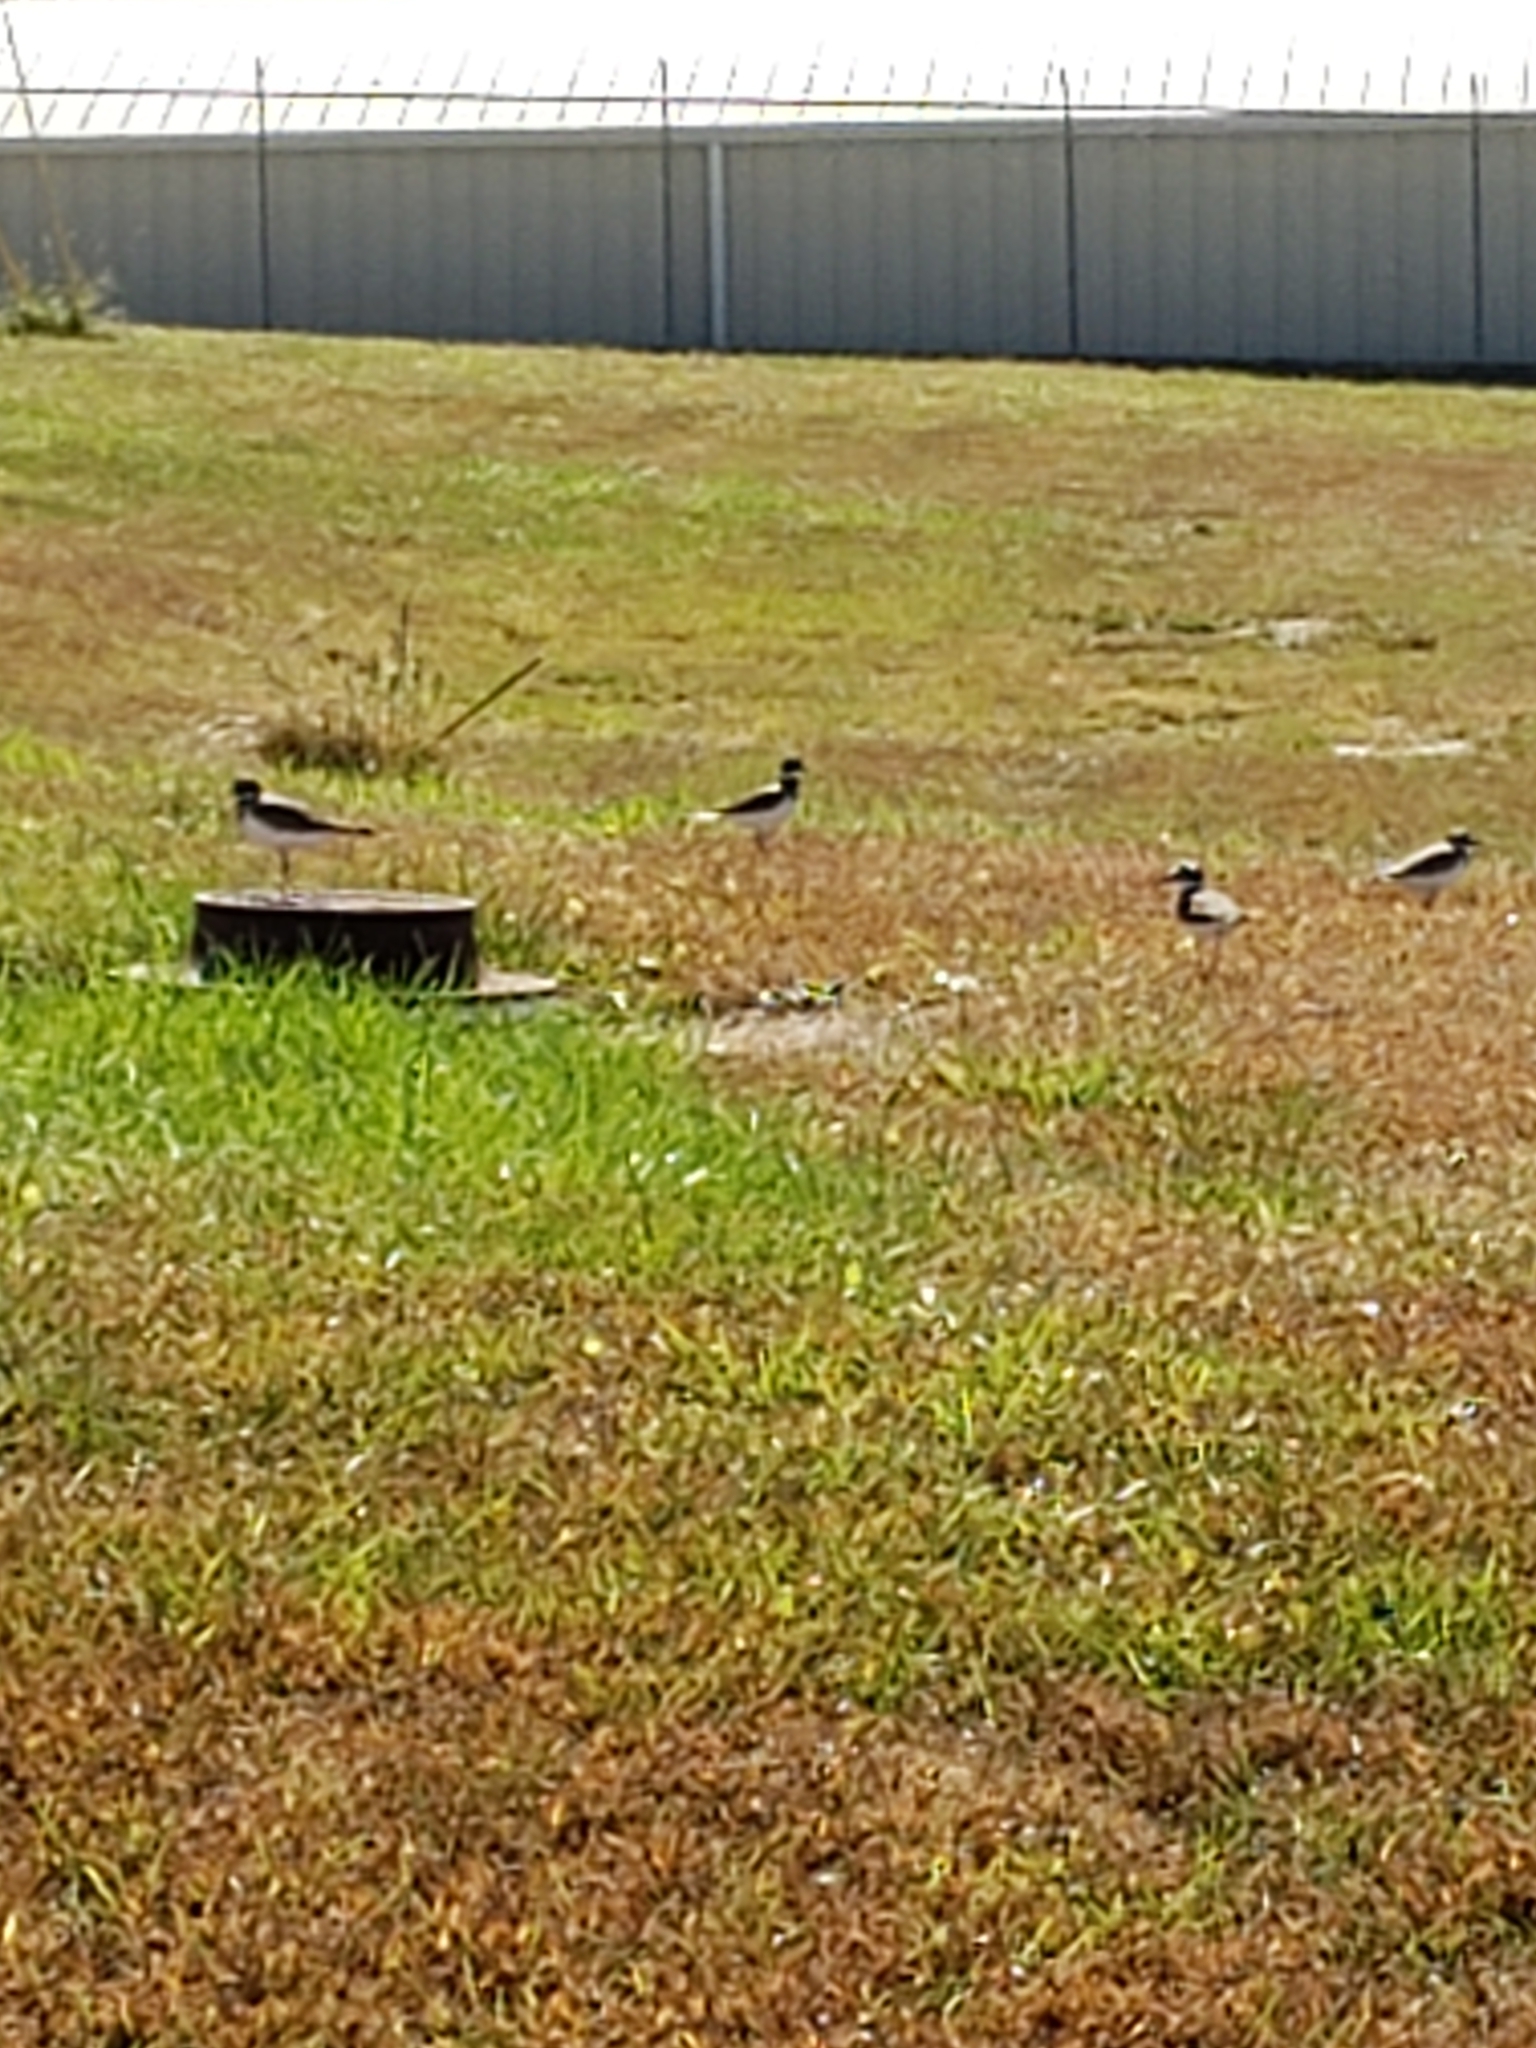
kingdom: Animalia
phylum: Chordata
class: Aves
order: Charadriiformes
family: Charadriidae
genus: Charadrius
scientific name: Charadrius vociferus
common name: Killdeer
